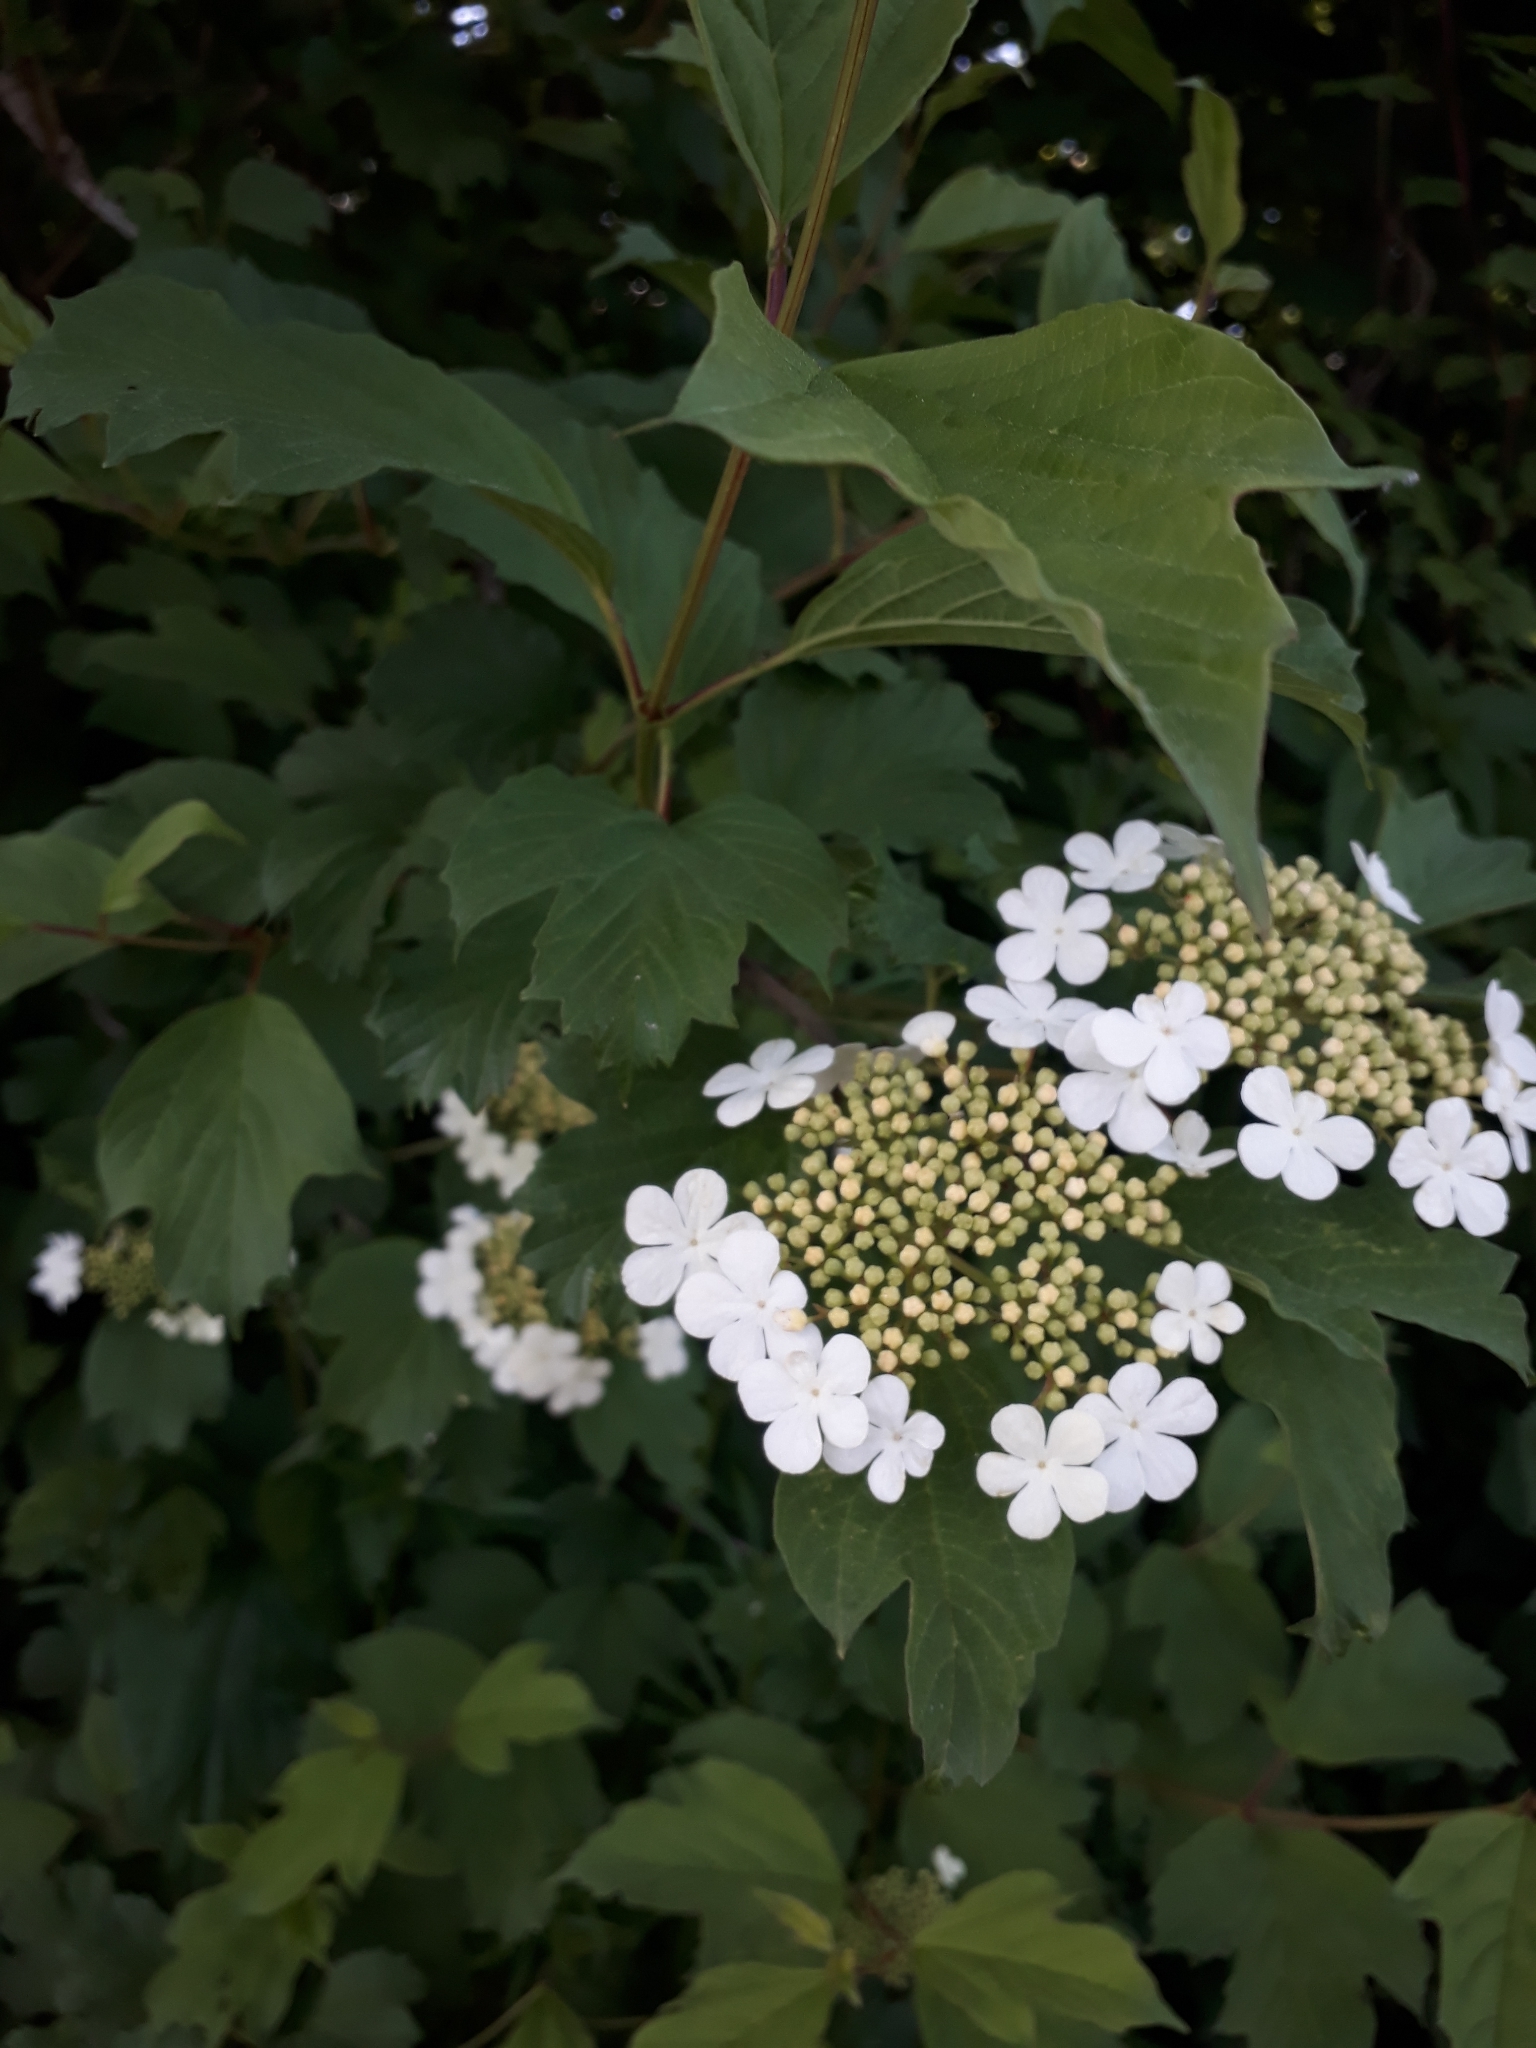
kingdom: Plantae
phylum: Tracheophyta
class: Magnoliopsida
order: Dipsacales
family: Viburnaceae
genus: Viburnum
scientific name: Viburnum opulus
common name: Guelder-rose
